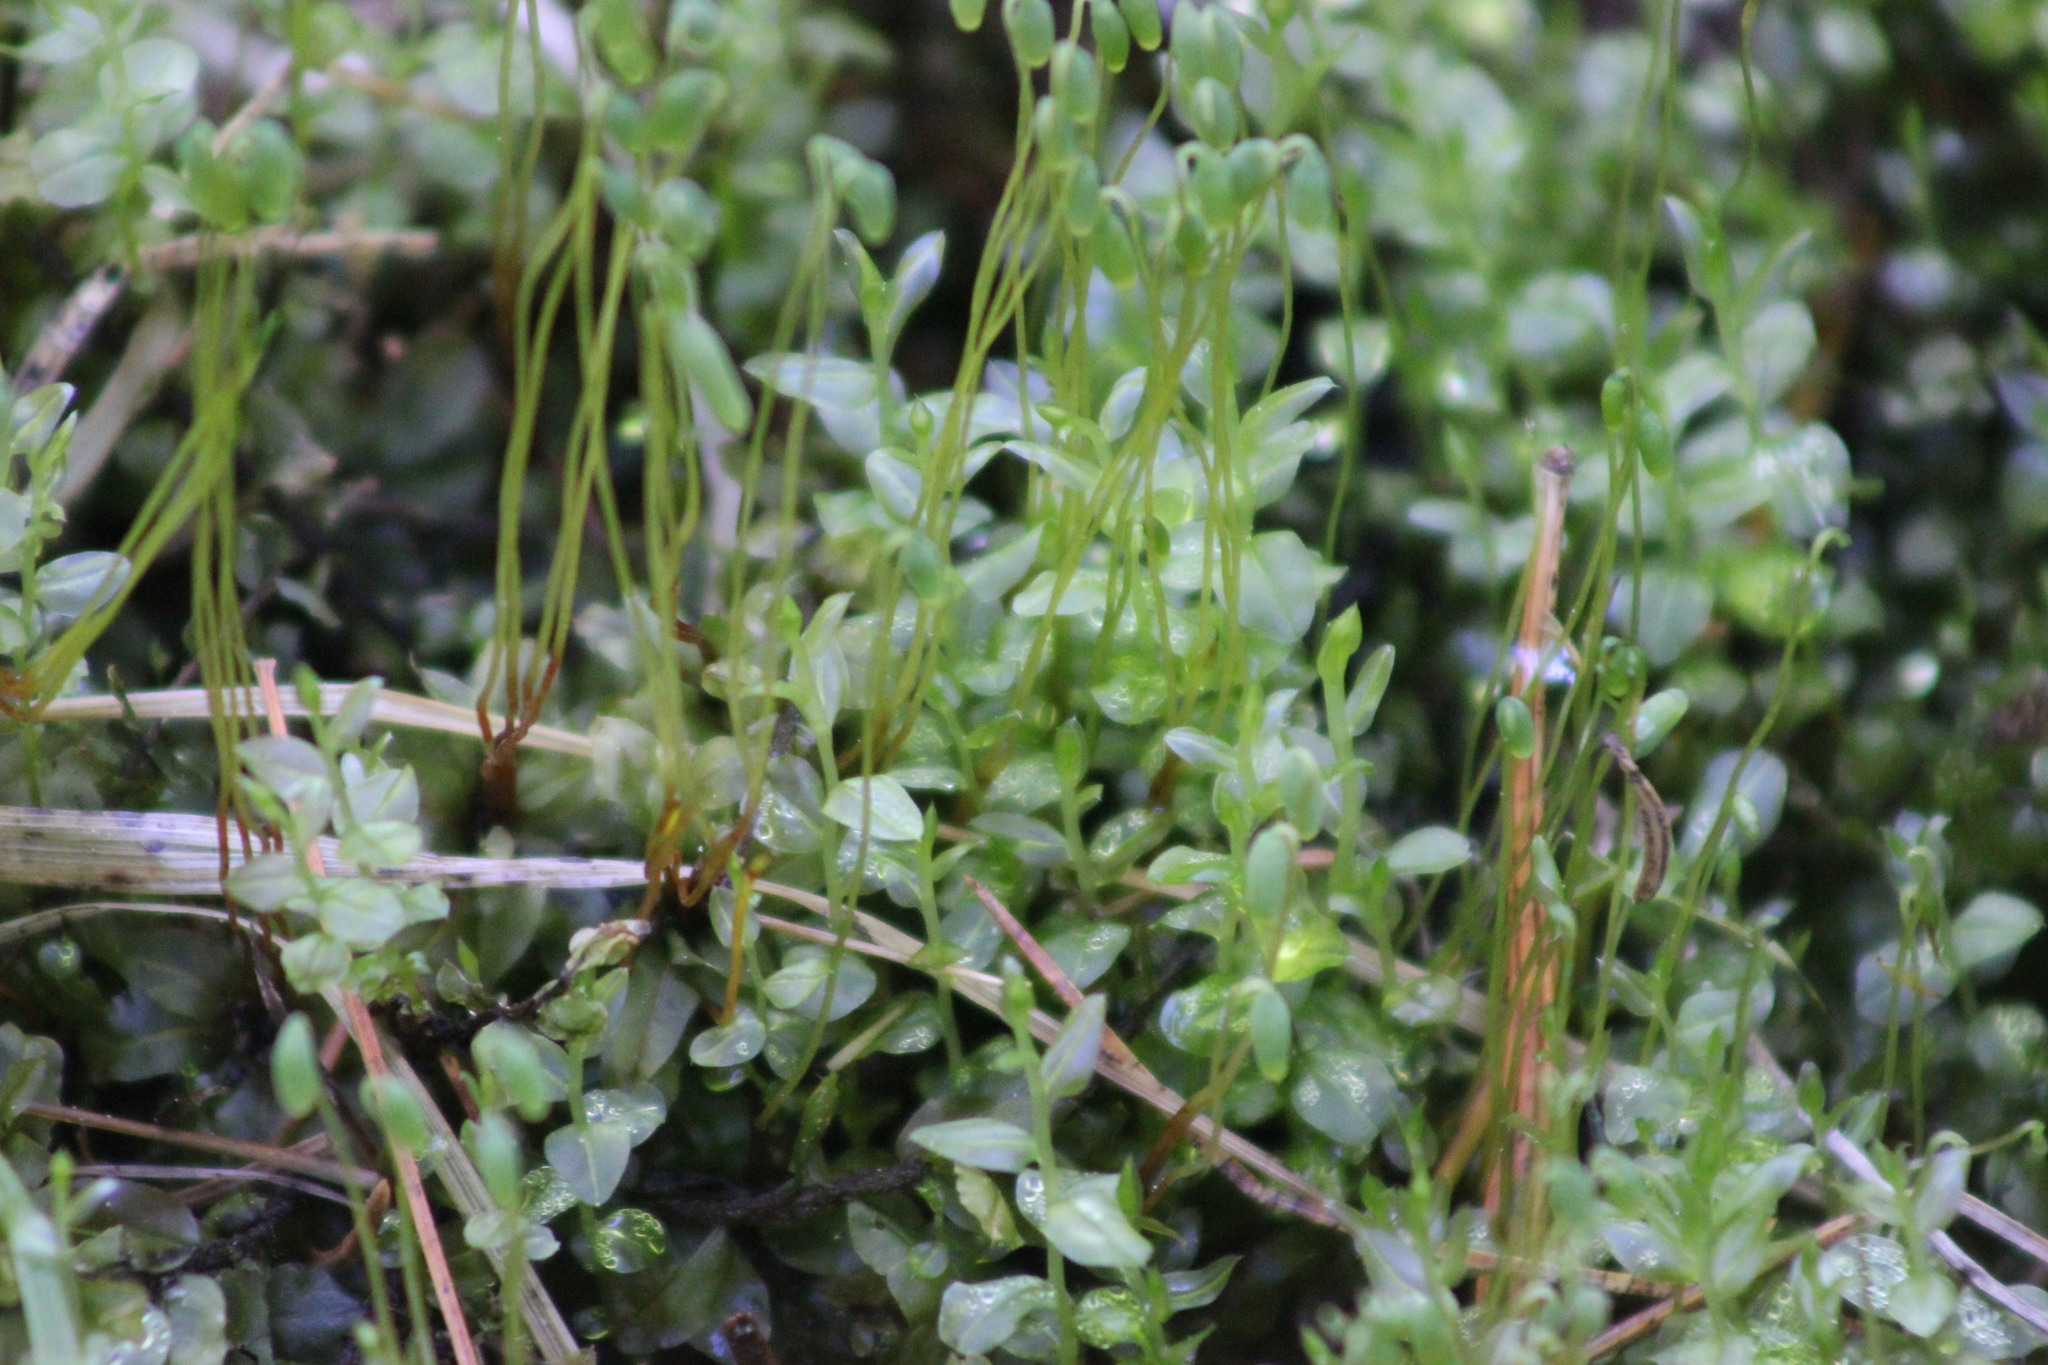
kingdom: Plantae
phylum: Bryophyta
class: Bryopsida
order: Bryales
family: Mniaceae
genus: Plagiomnium
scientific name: Plagiomnium ellipticum
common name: Marsh leafy moss
